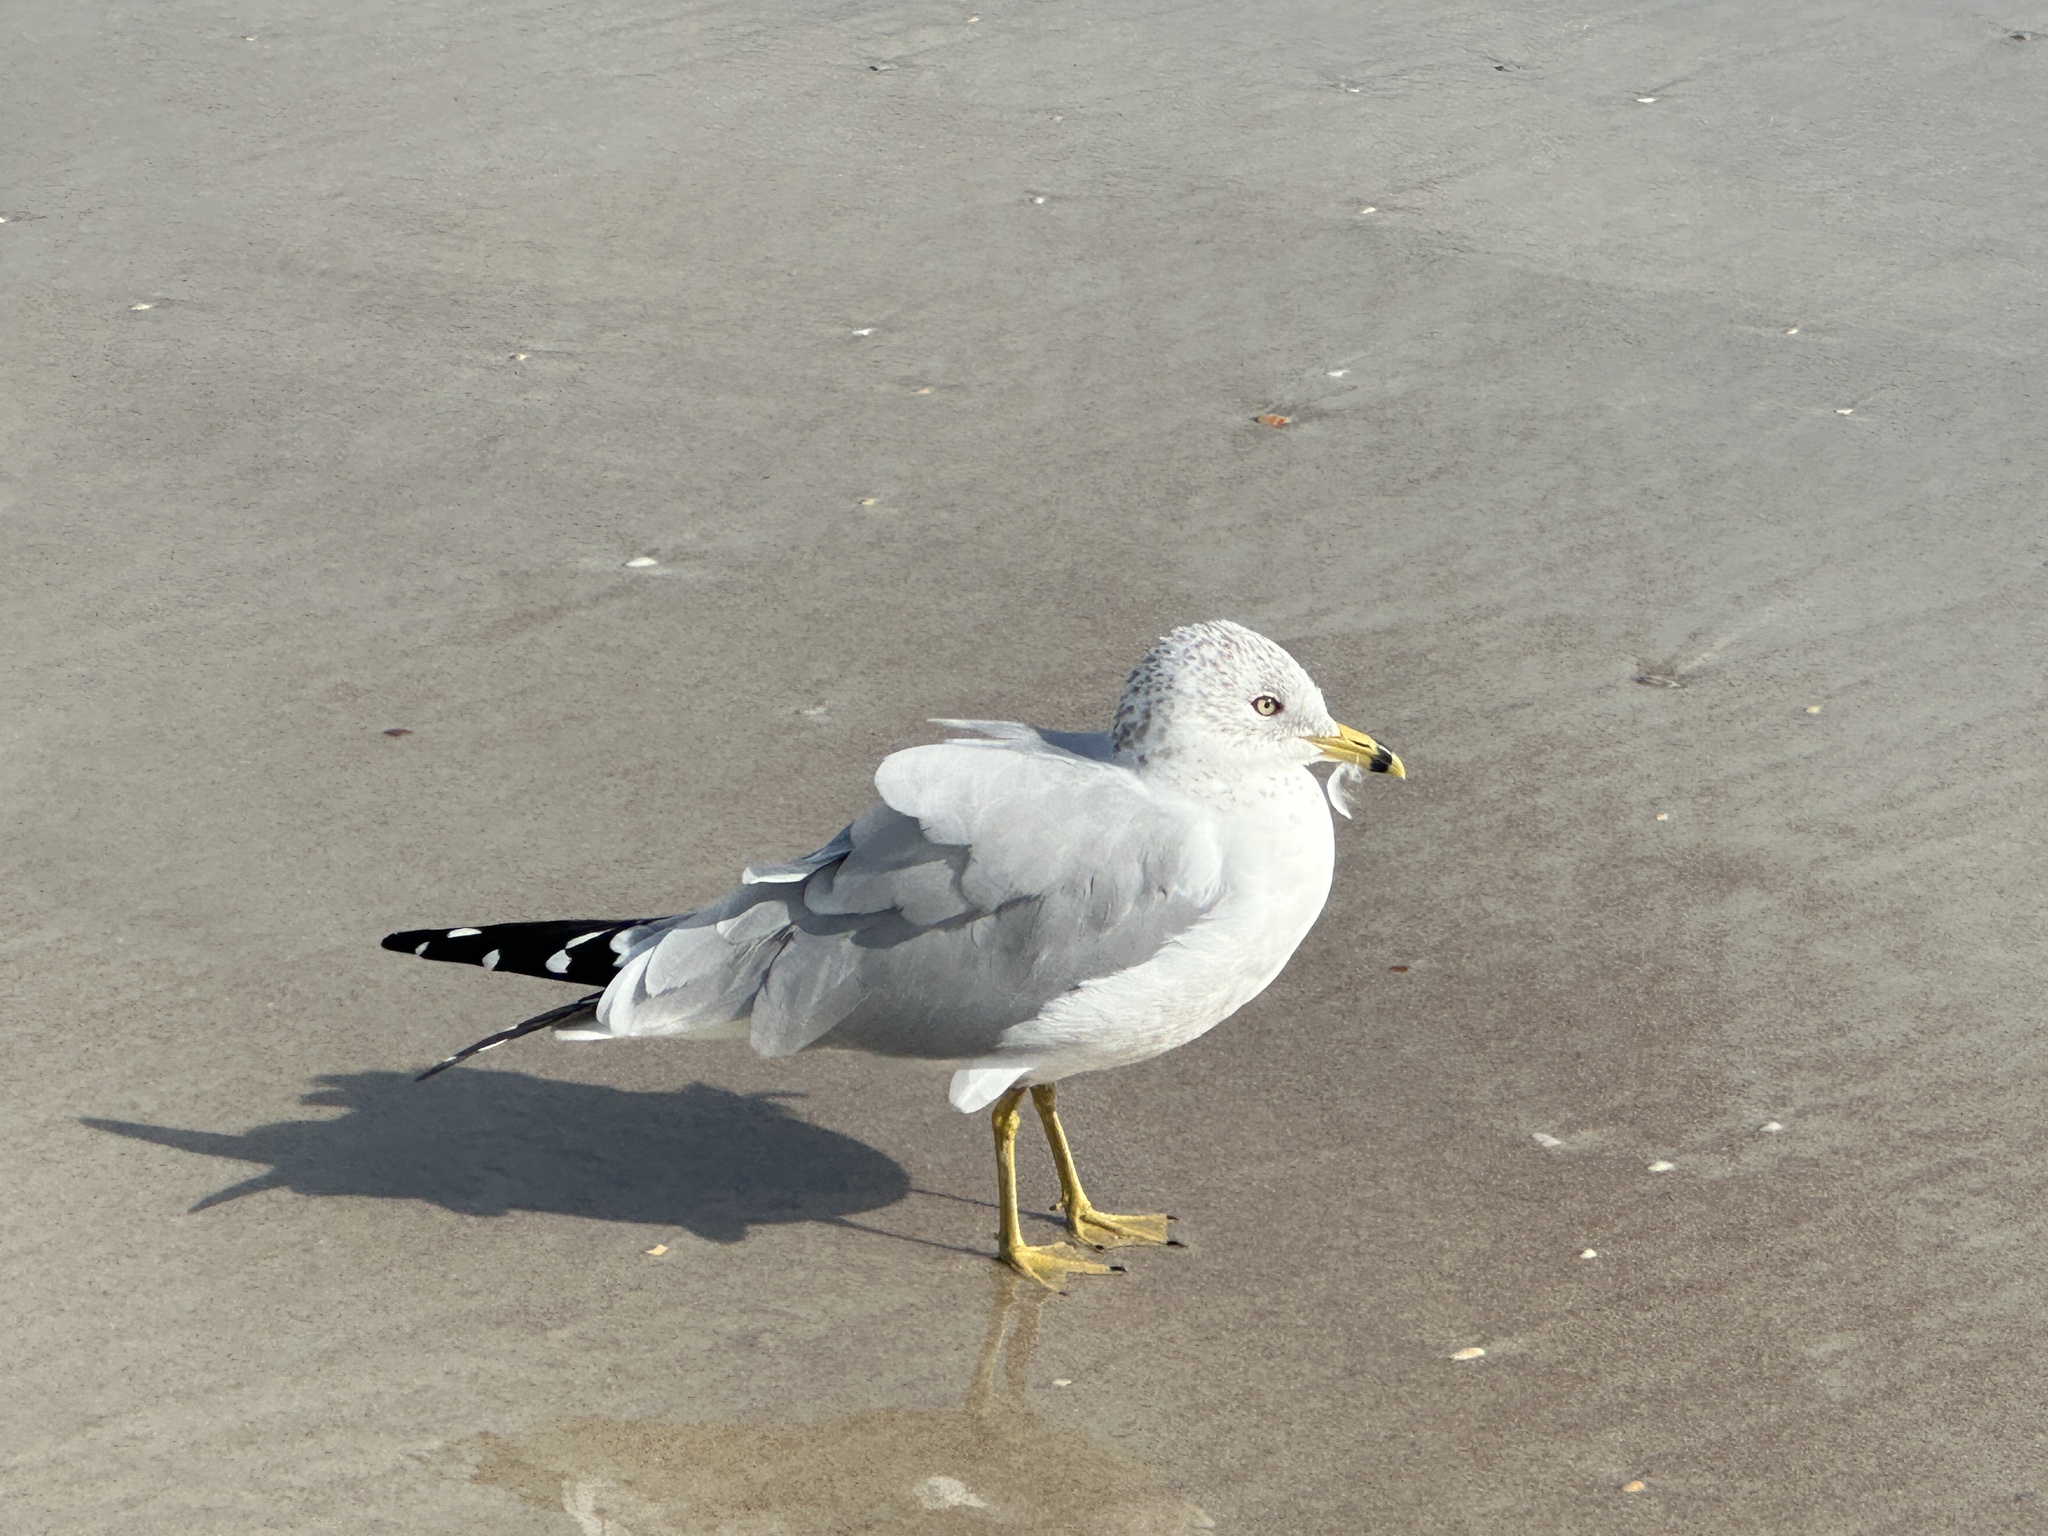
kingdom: Animalia
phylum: Chordata
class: Aves
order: Charadriiformes
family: Laridae
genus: Larus
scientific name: Larus delawarensis
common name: Ring-billed gull
